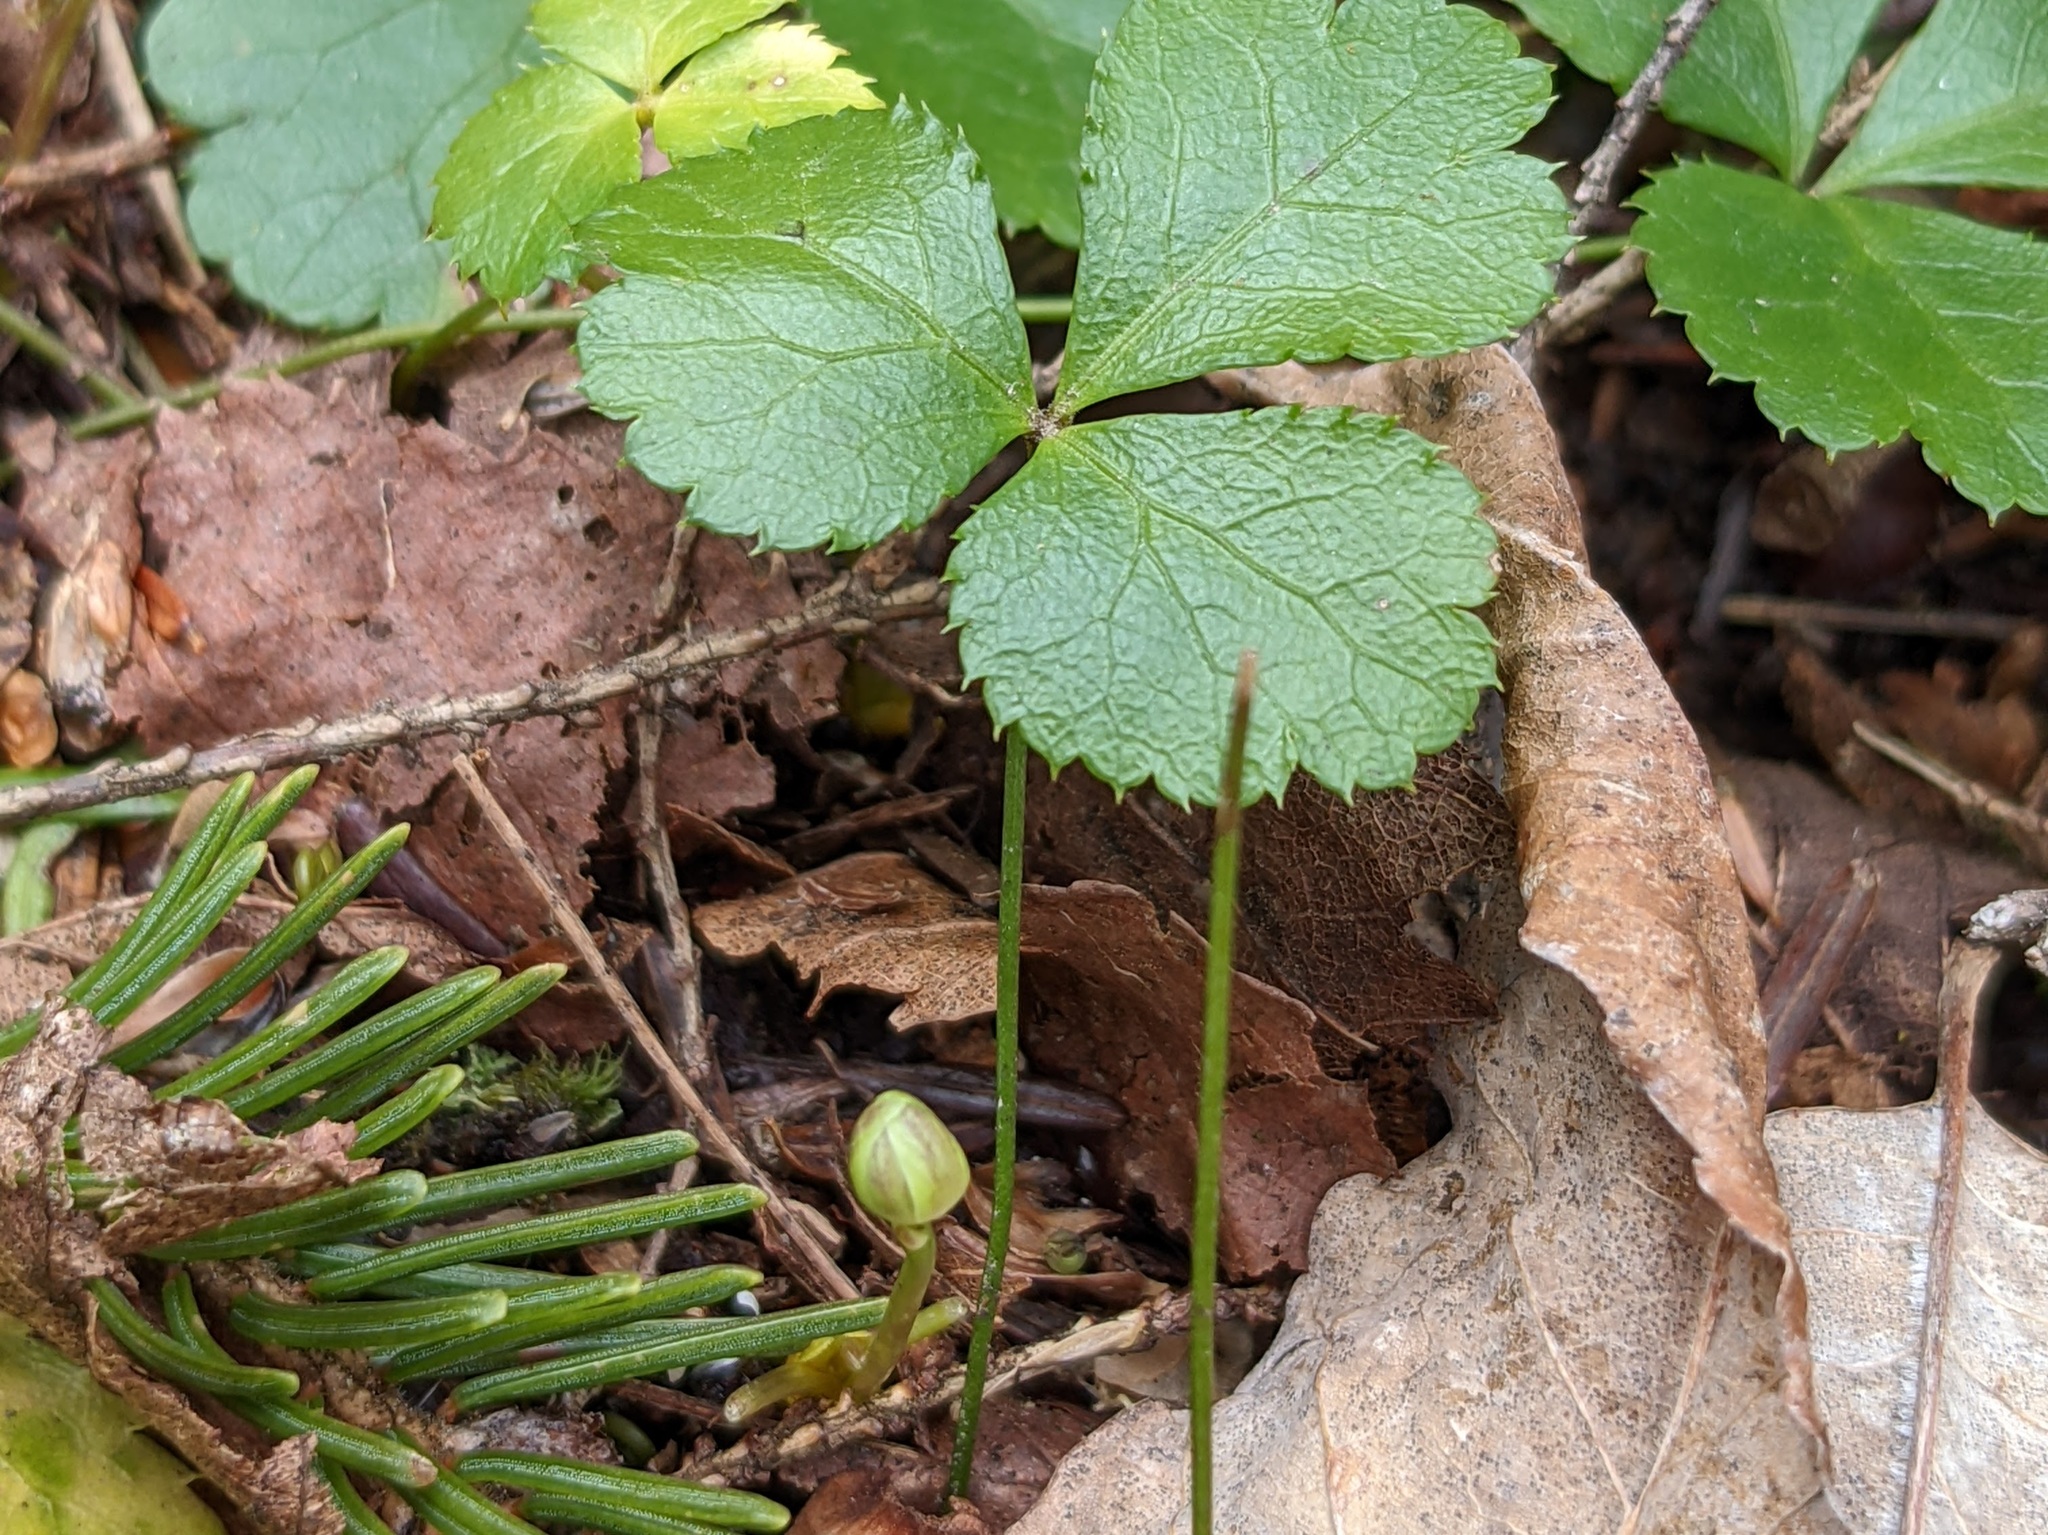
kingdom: Plantae
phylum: Tracheophyta
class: Magnoliopsida
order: Ranunculales
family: Ranunculaceae
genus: Coptis
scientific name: Coptis trifolia
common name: Canker-root
